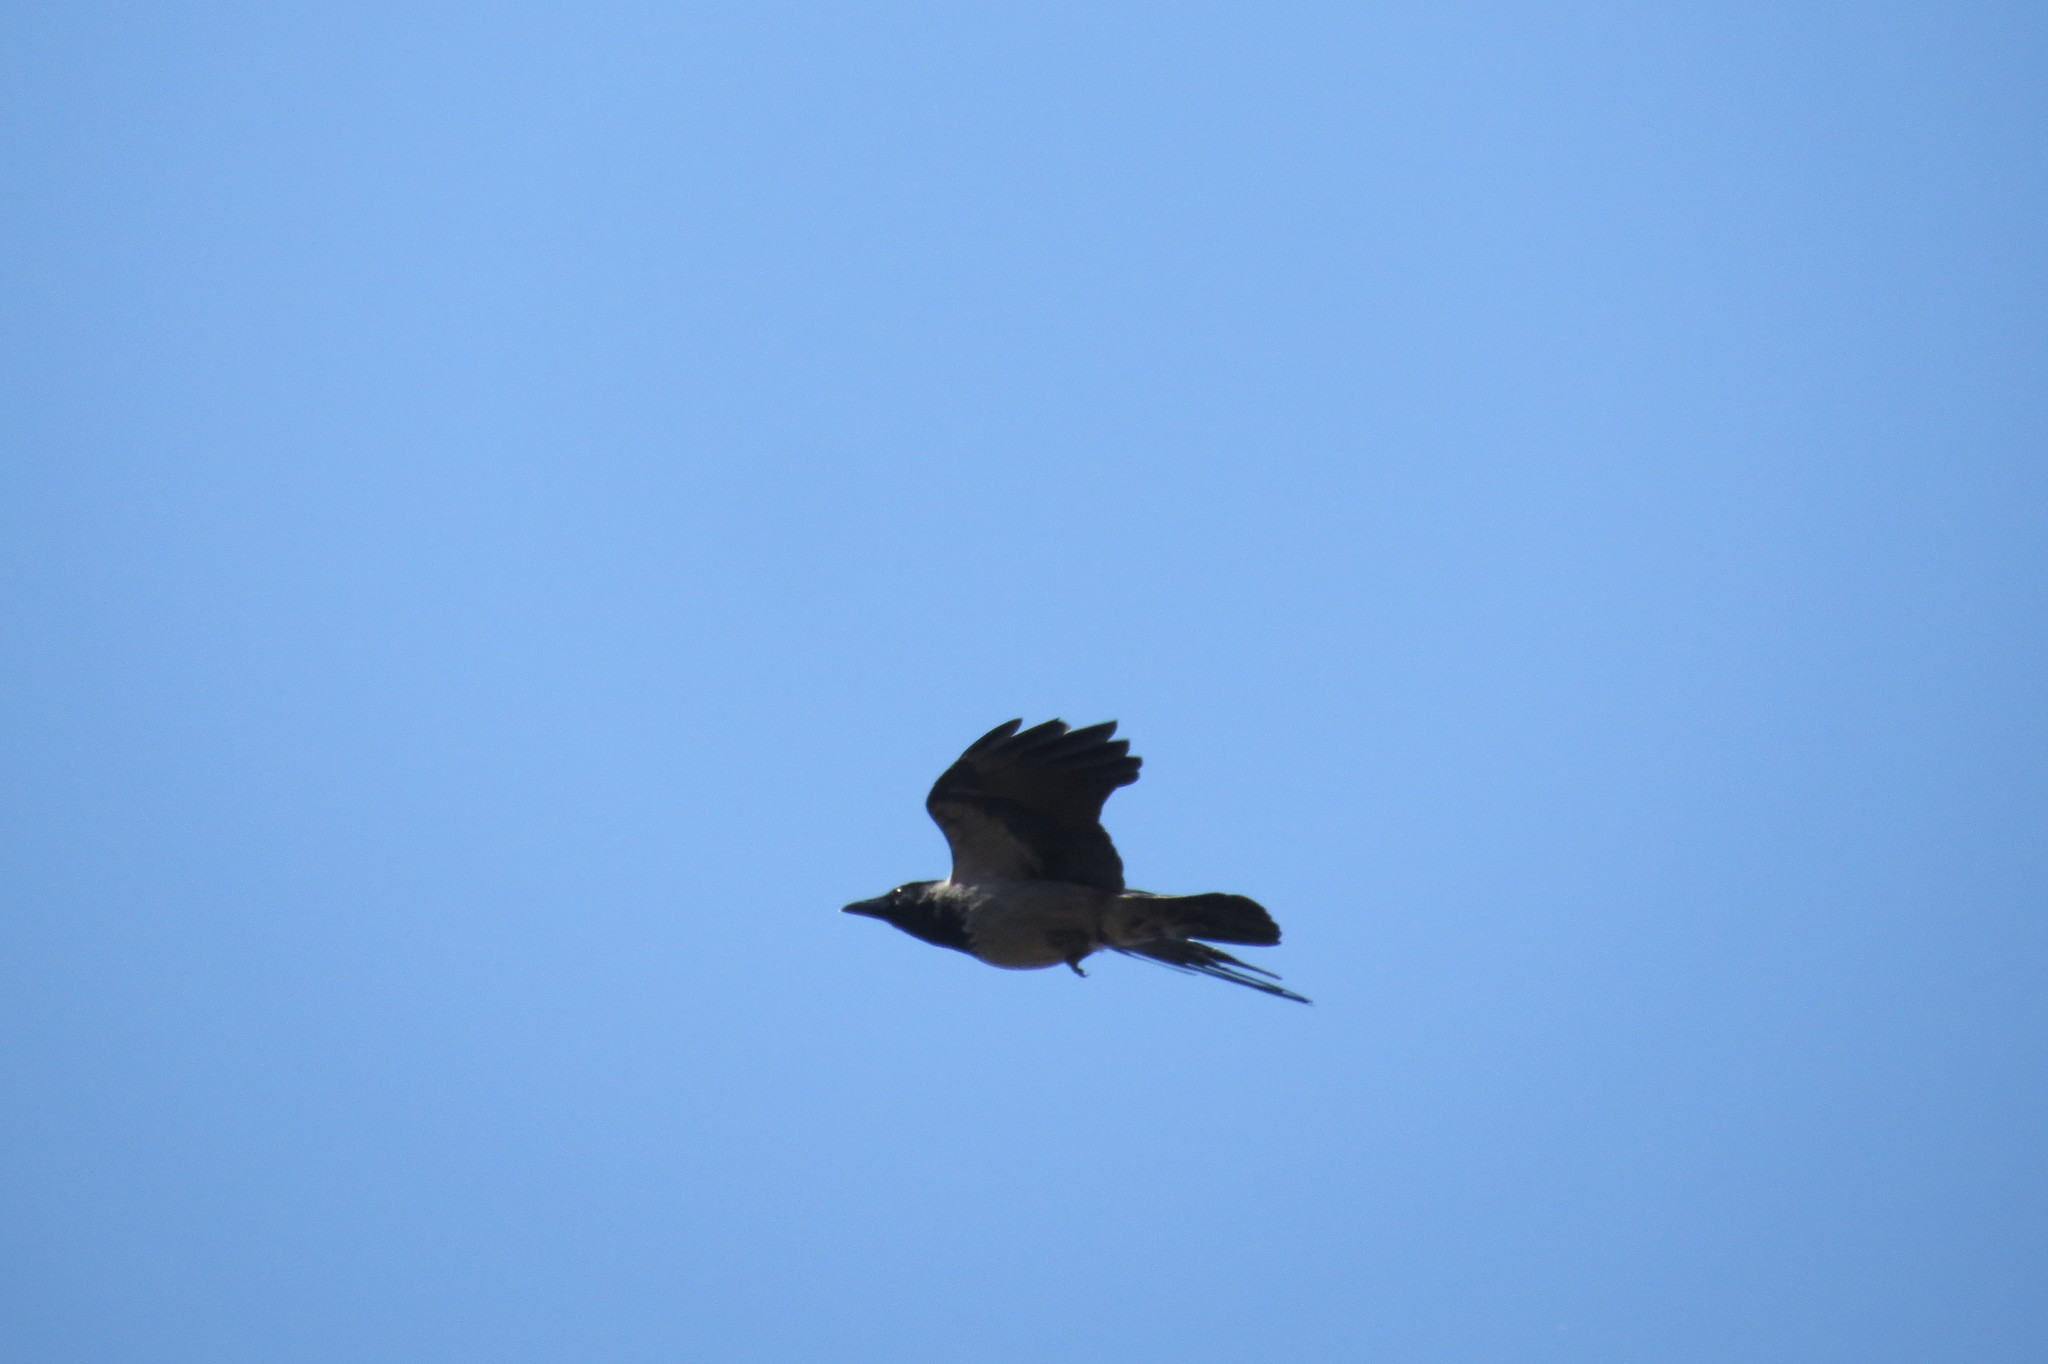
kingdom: Animalia
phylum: Chordata
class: Aves
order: Passeriformes
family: Corvidae
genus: Corvus
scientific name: Corvus cornix
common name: Hooded crow
